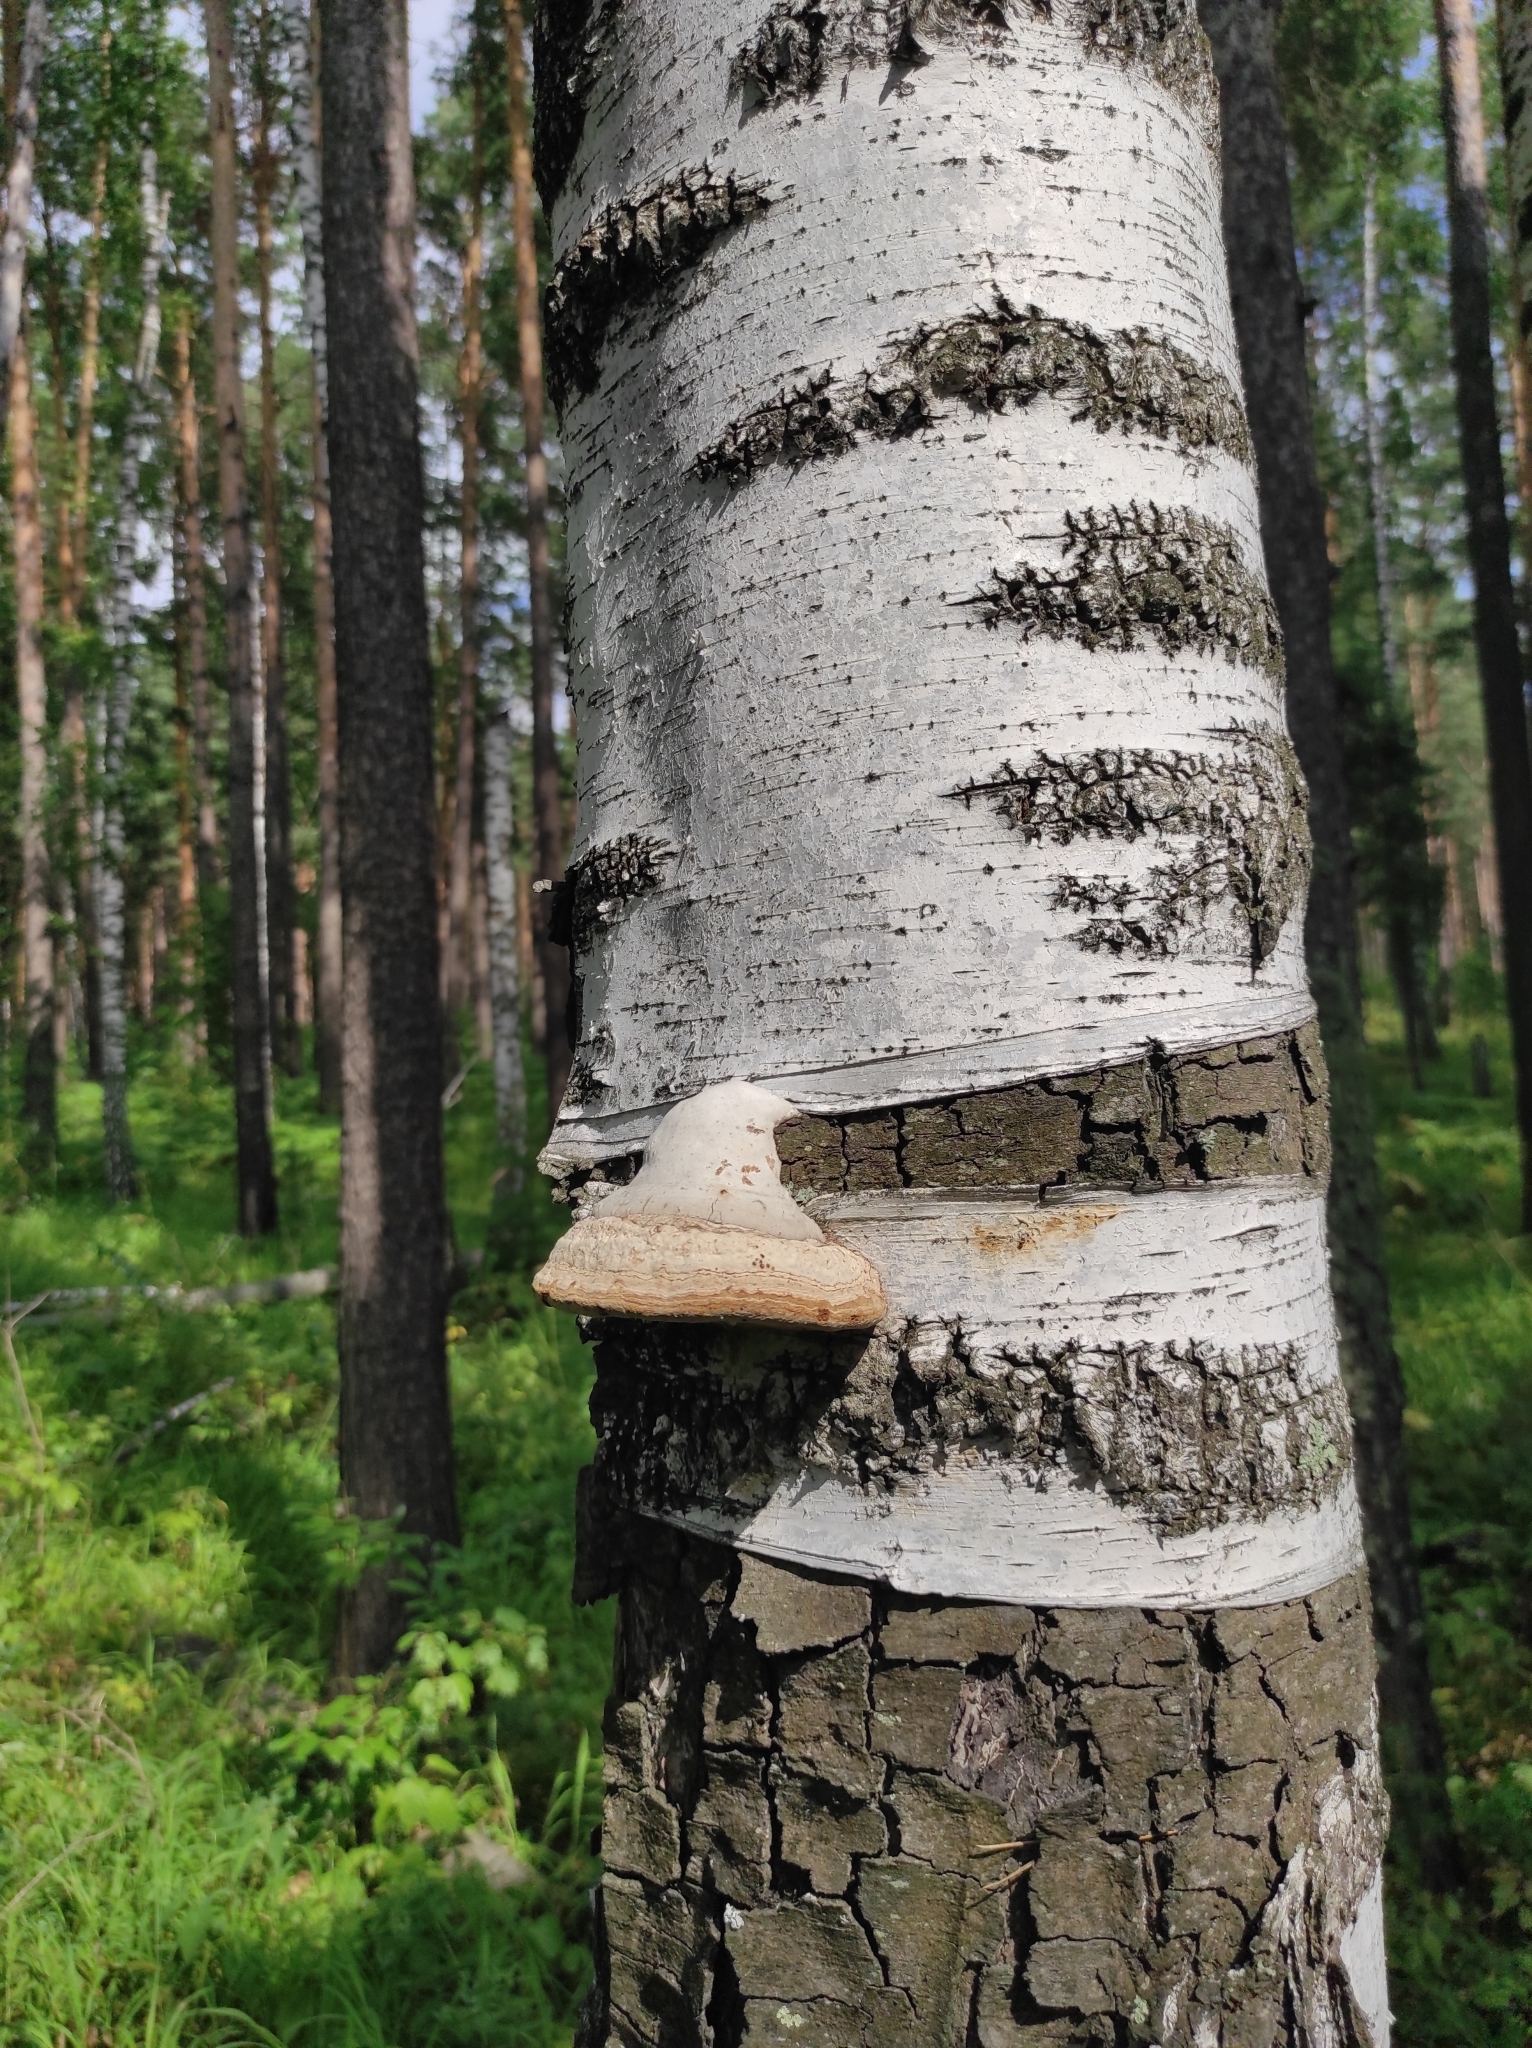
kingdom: Plantae
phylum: Tracheophyta
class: Magnoliopsida
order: Fagales
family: Betulaceae
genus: Betula
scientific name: Betula pendula
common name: Silver birch
